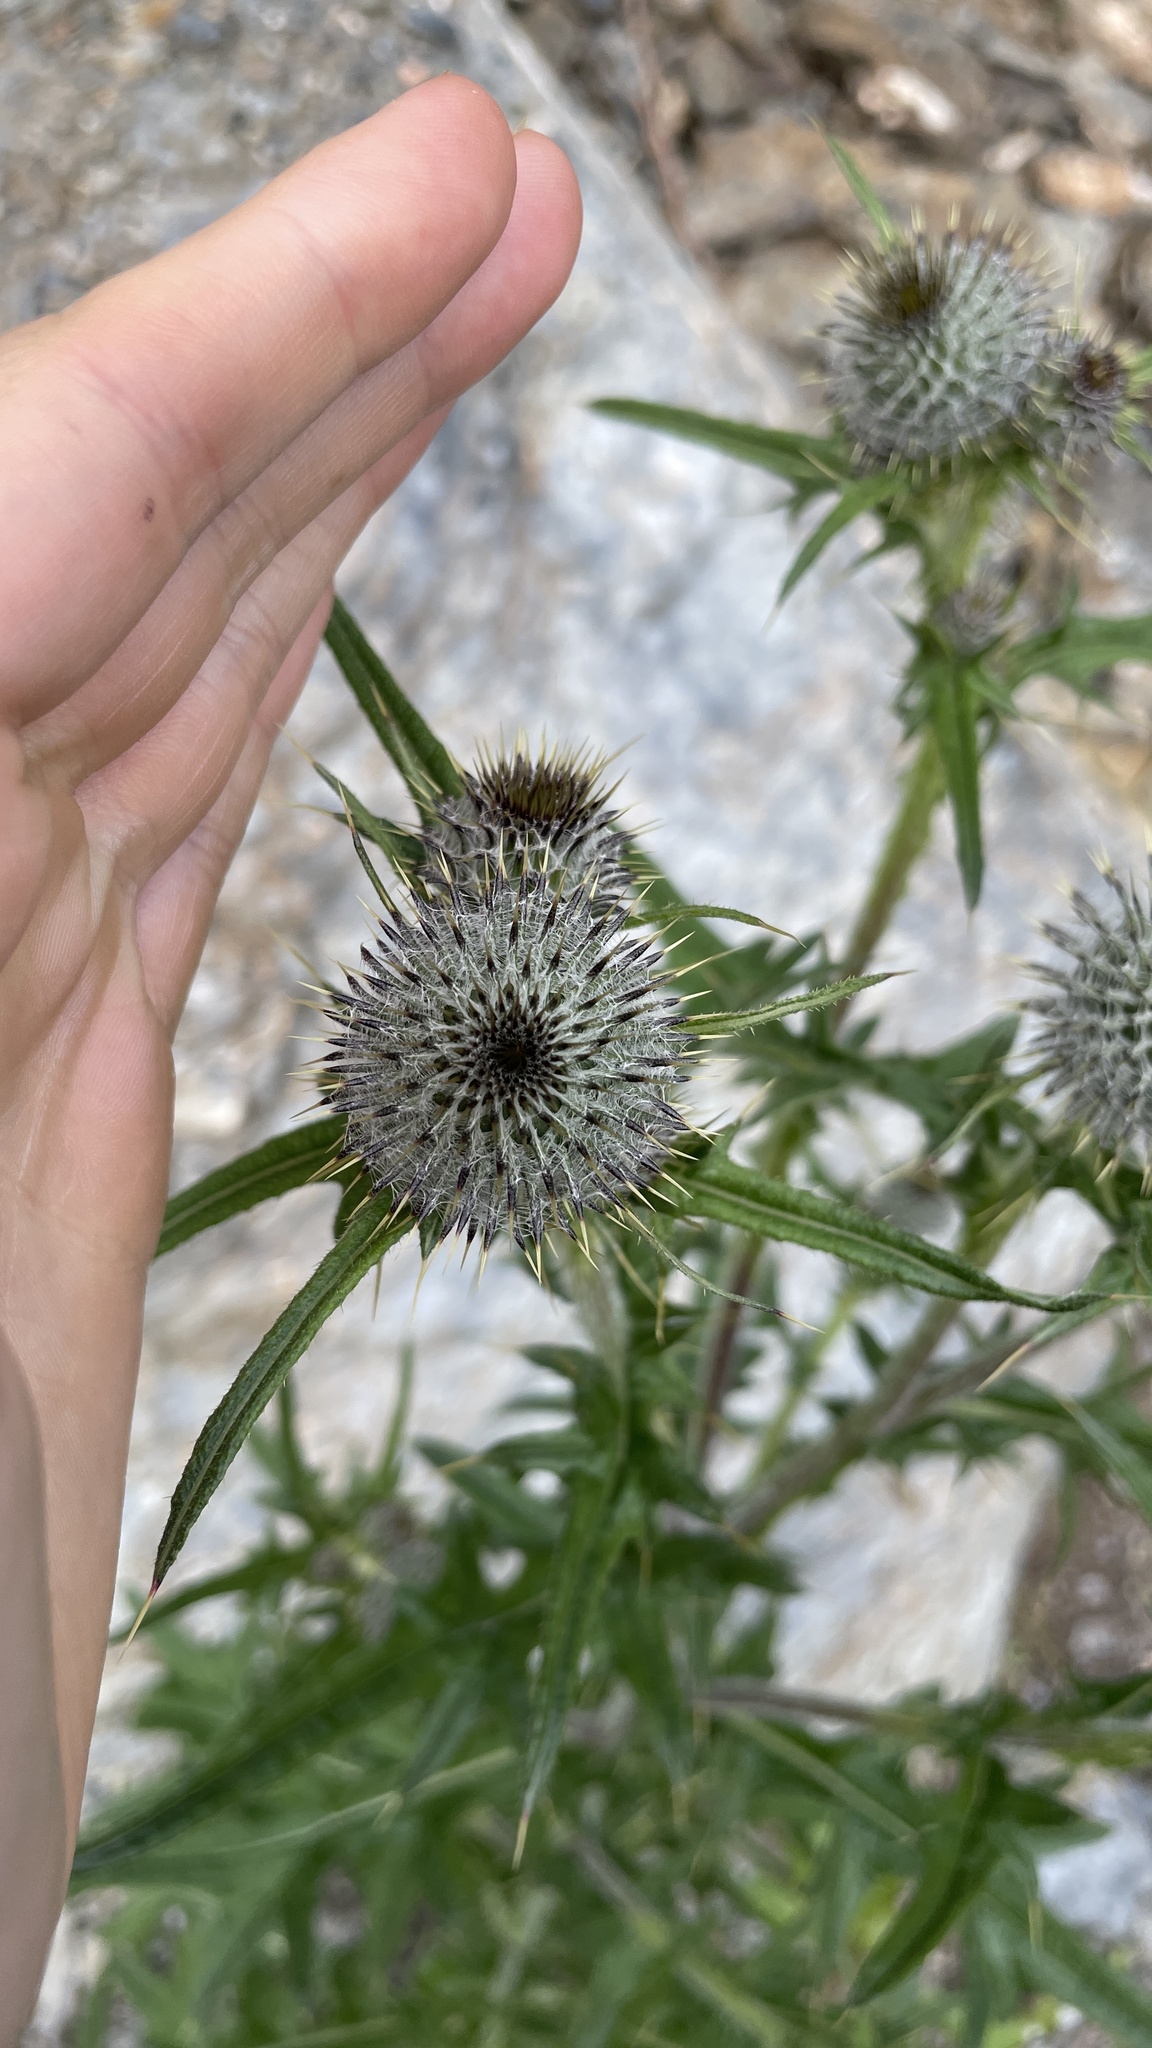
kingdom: Plantae
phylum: Tracheophyta
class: Magnoliopsida
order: Asterales
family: Asteraceae
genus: Cirsium
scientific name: Cirsium vulgare
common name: Bull thistle
